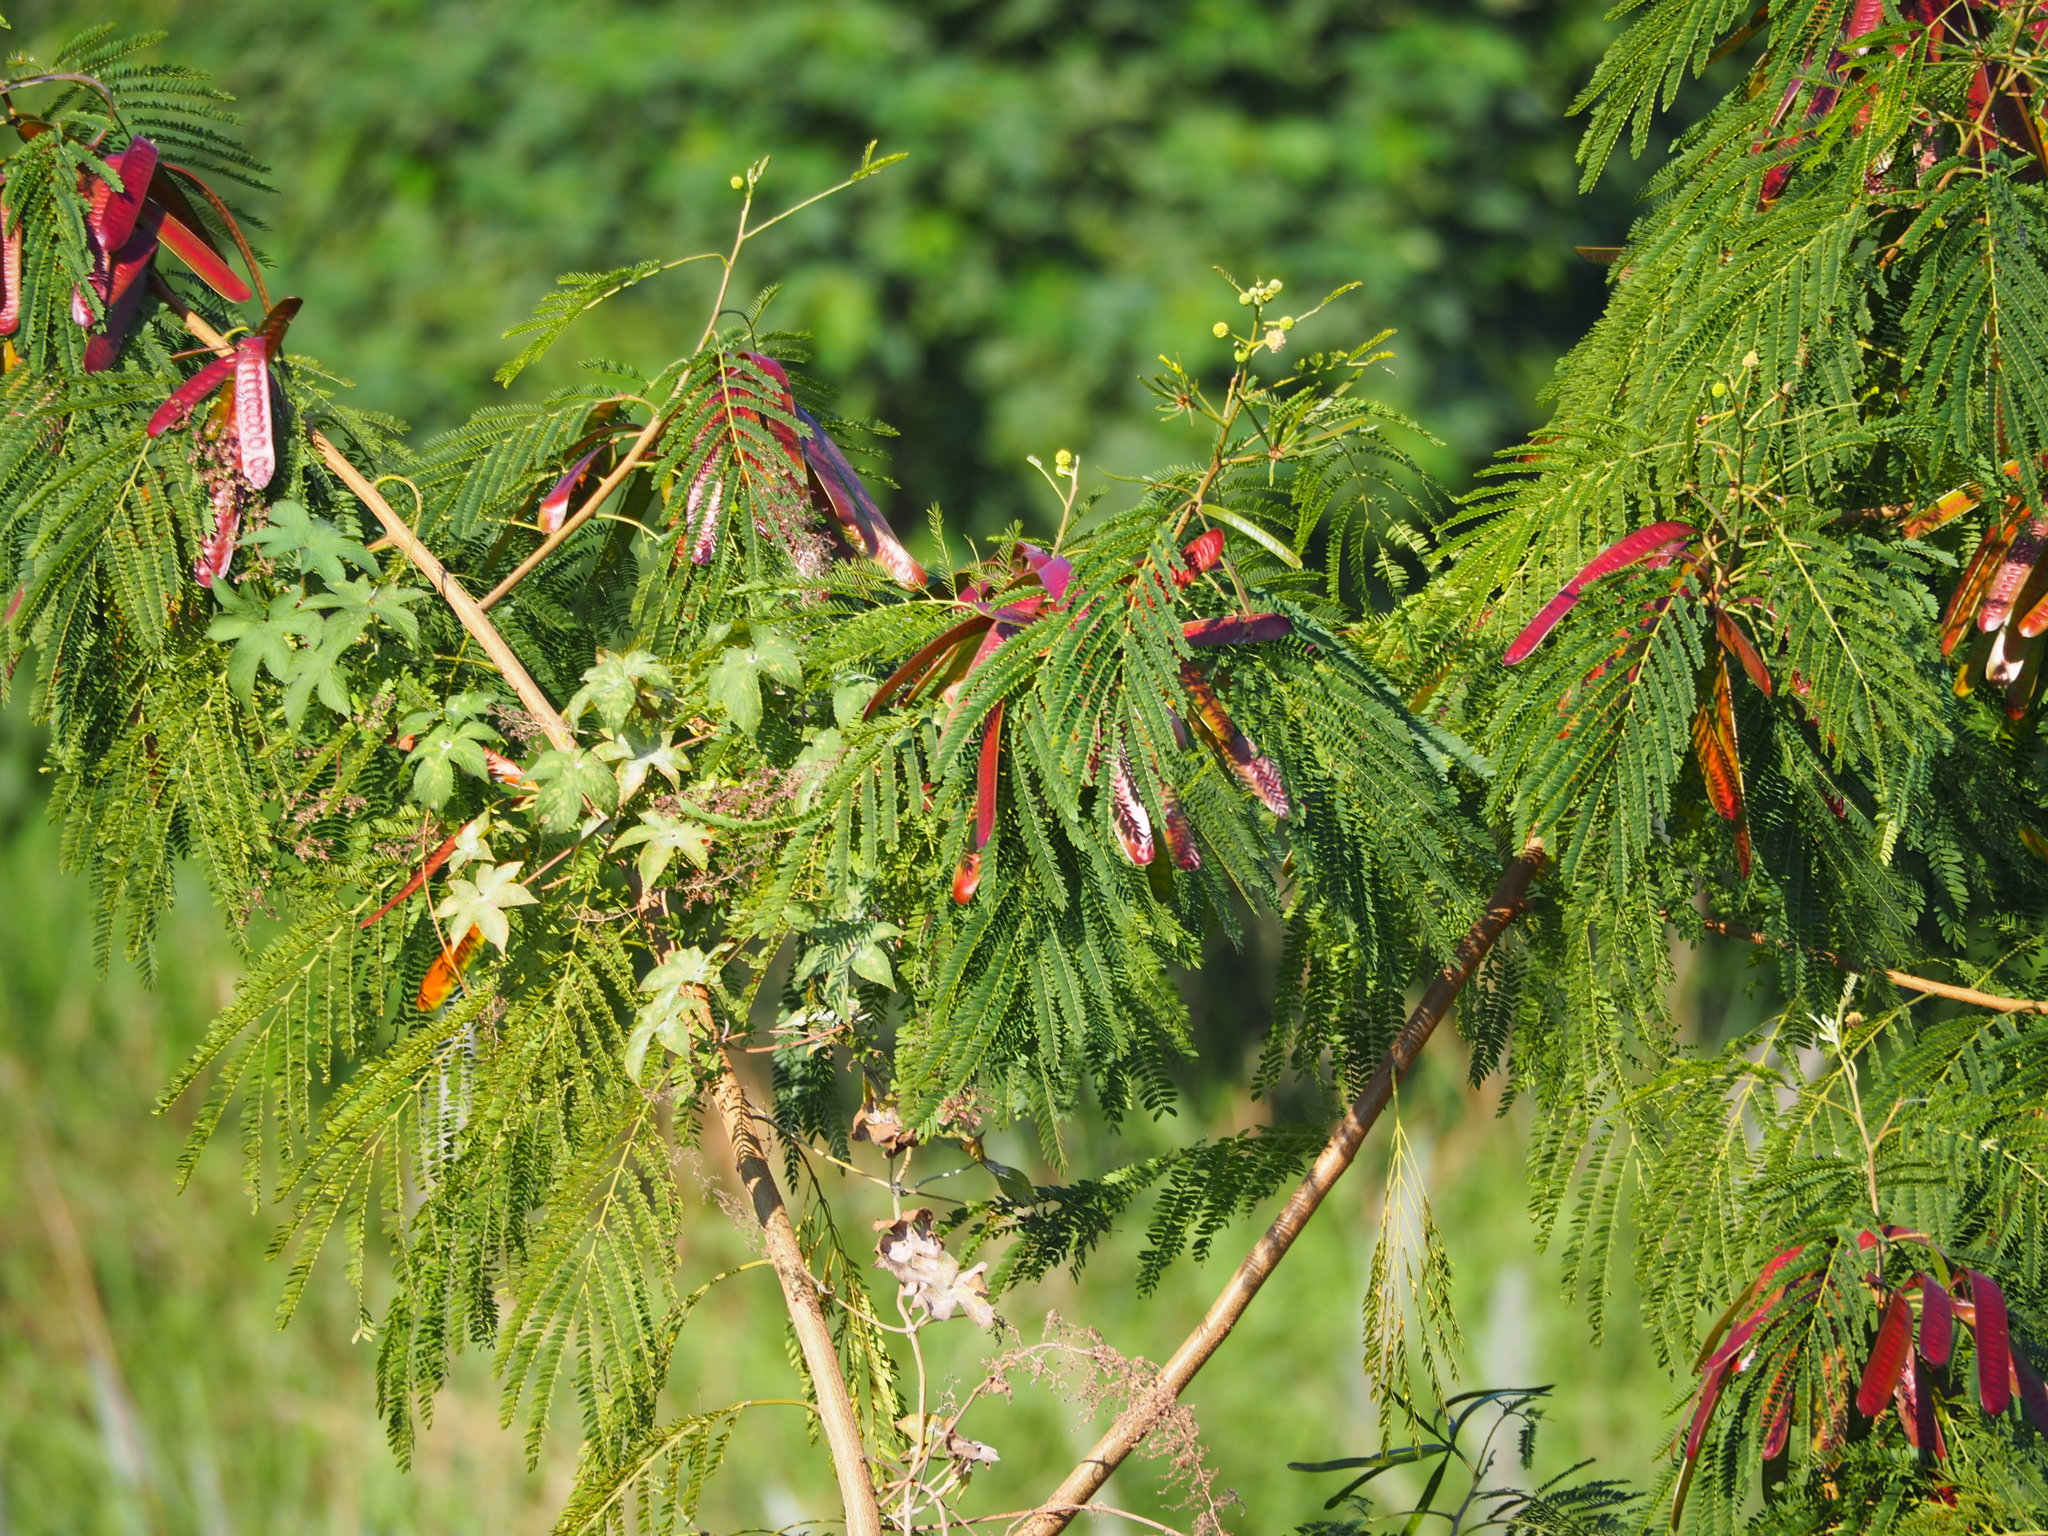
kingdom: Plantae
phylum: Tracheophyta
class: Magnoliopsida
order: Fabales
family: Fabaceae
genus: Leucaena
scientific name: Leucaena leucocephala
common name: White leadtree
